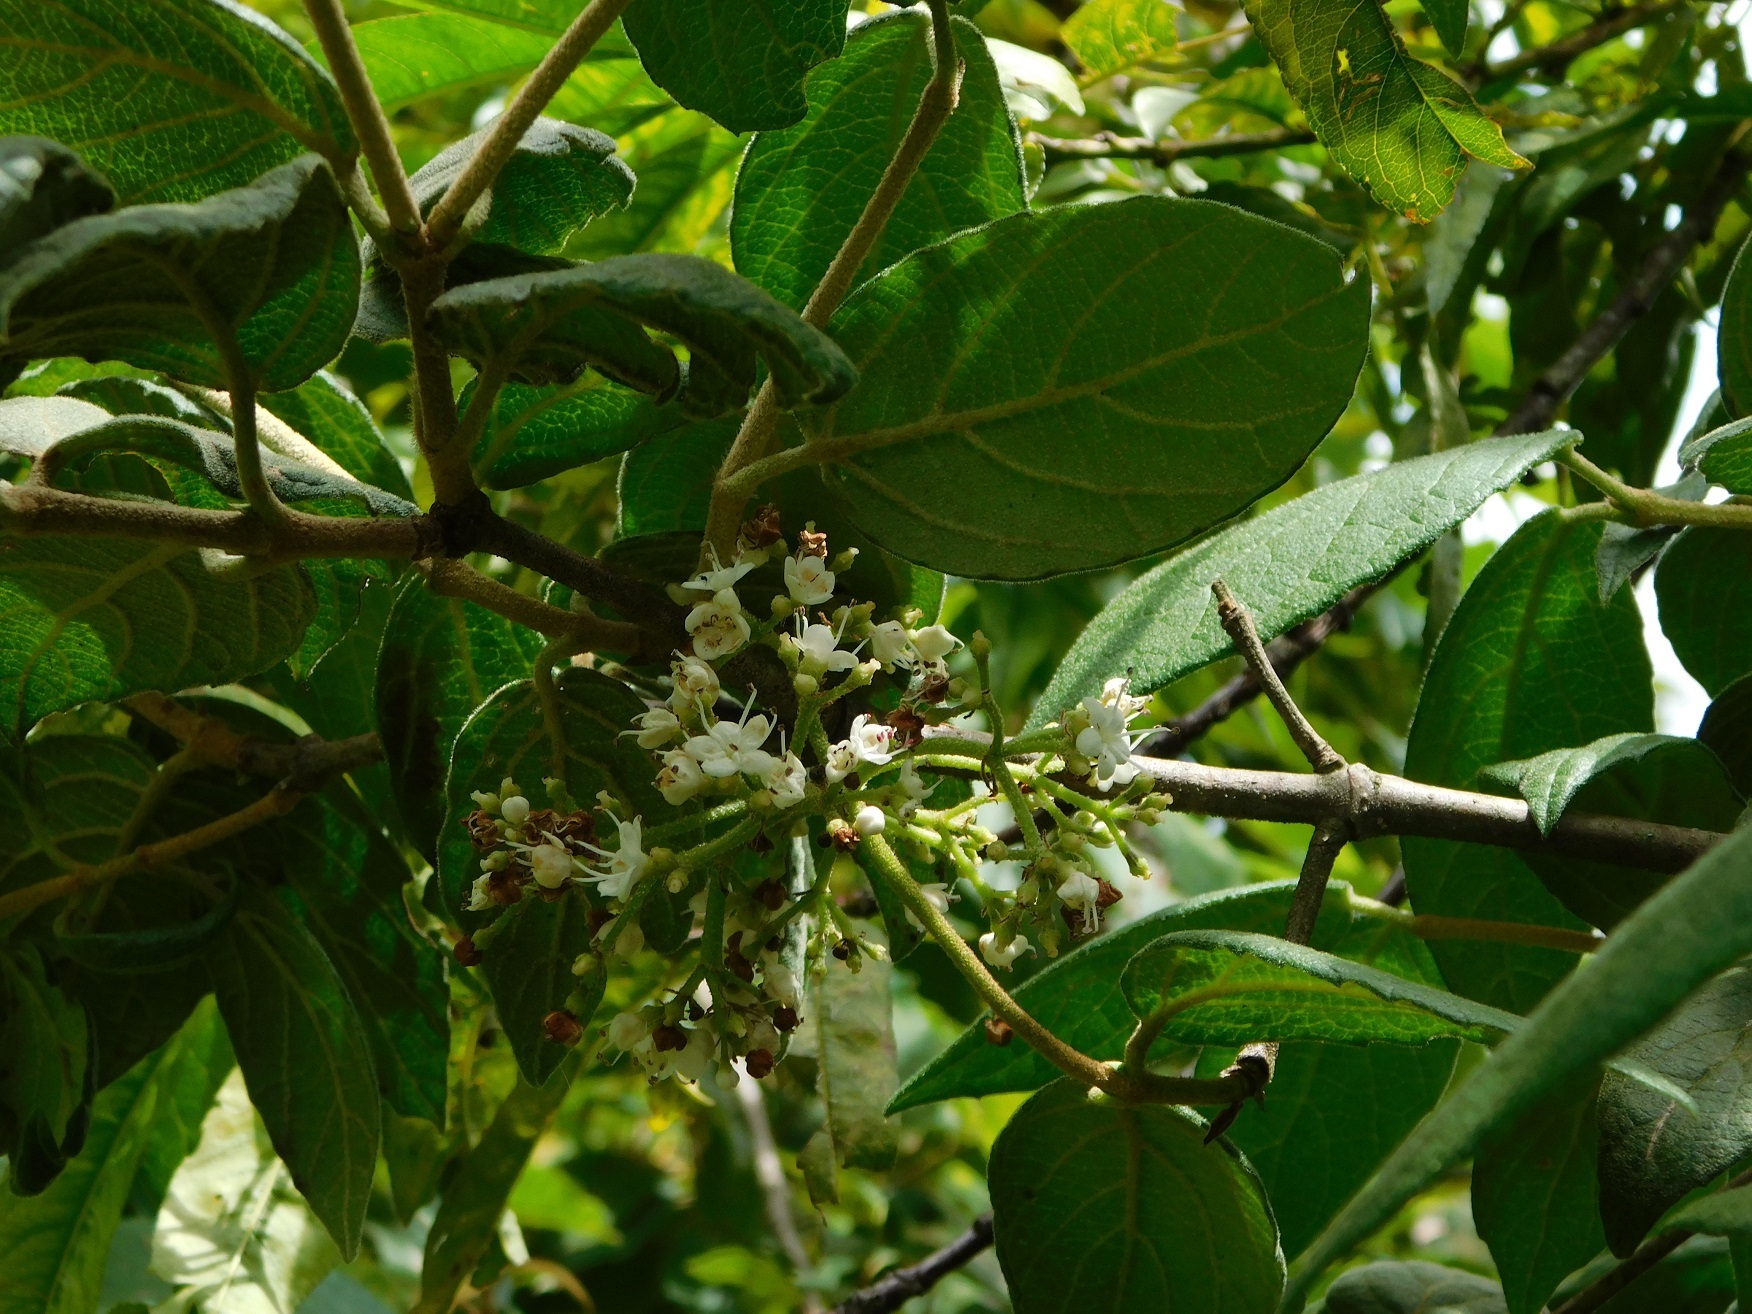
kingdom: Plantae
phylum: Tracheophyta
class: Magnoliopsida
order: Dipsacales
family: Viburnaceae
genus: Viburnum
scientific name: Viburnum jucundum
